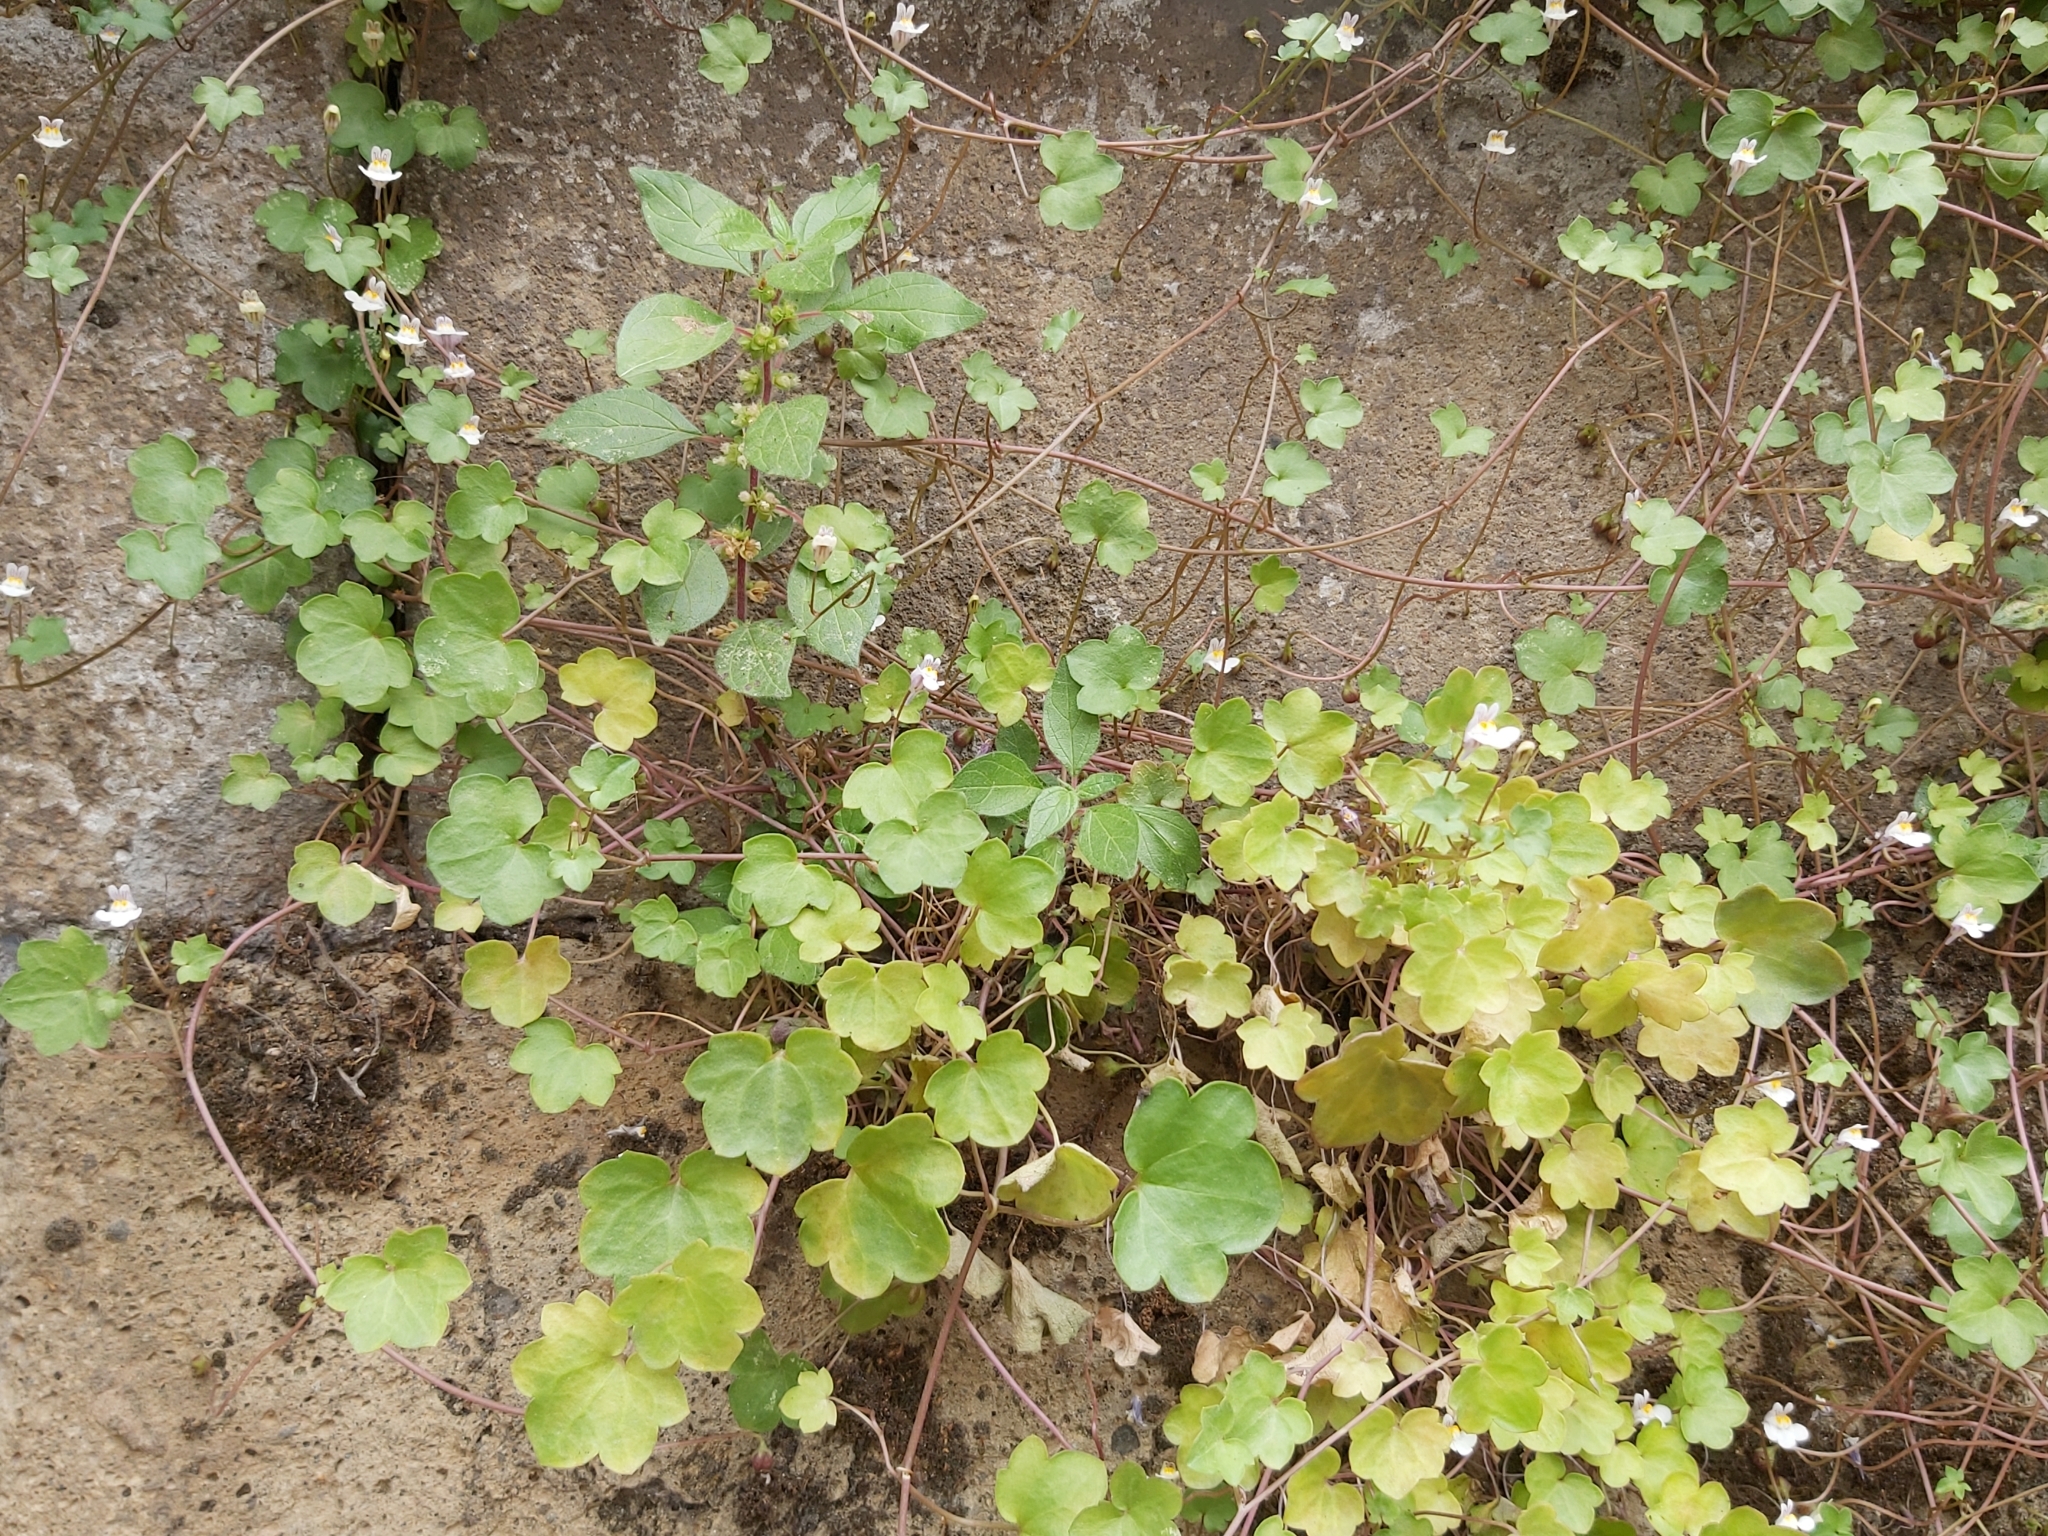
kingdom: Plantae
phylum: Tracheophyta
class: Magnoliopsida
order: Lamiales
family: Plantaginaceae
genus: Cymbalaria
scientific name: Cymbalaria muralis
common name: Ivy-leaved toadflax
